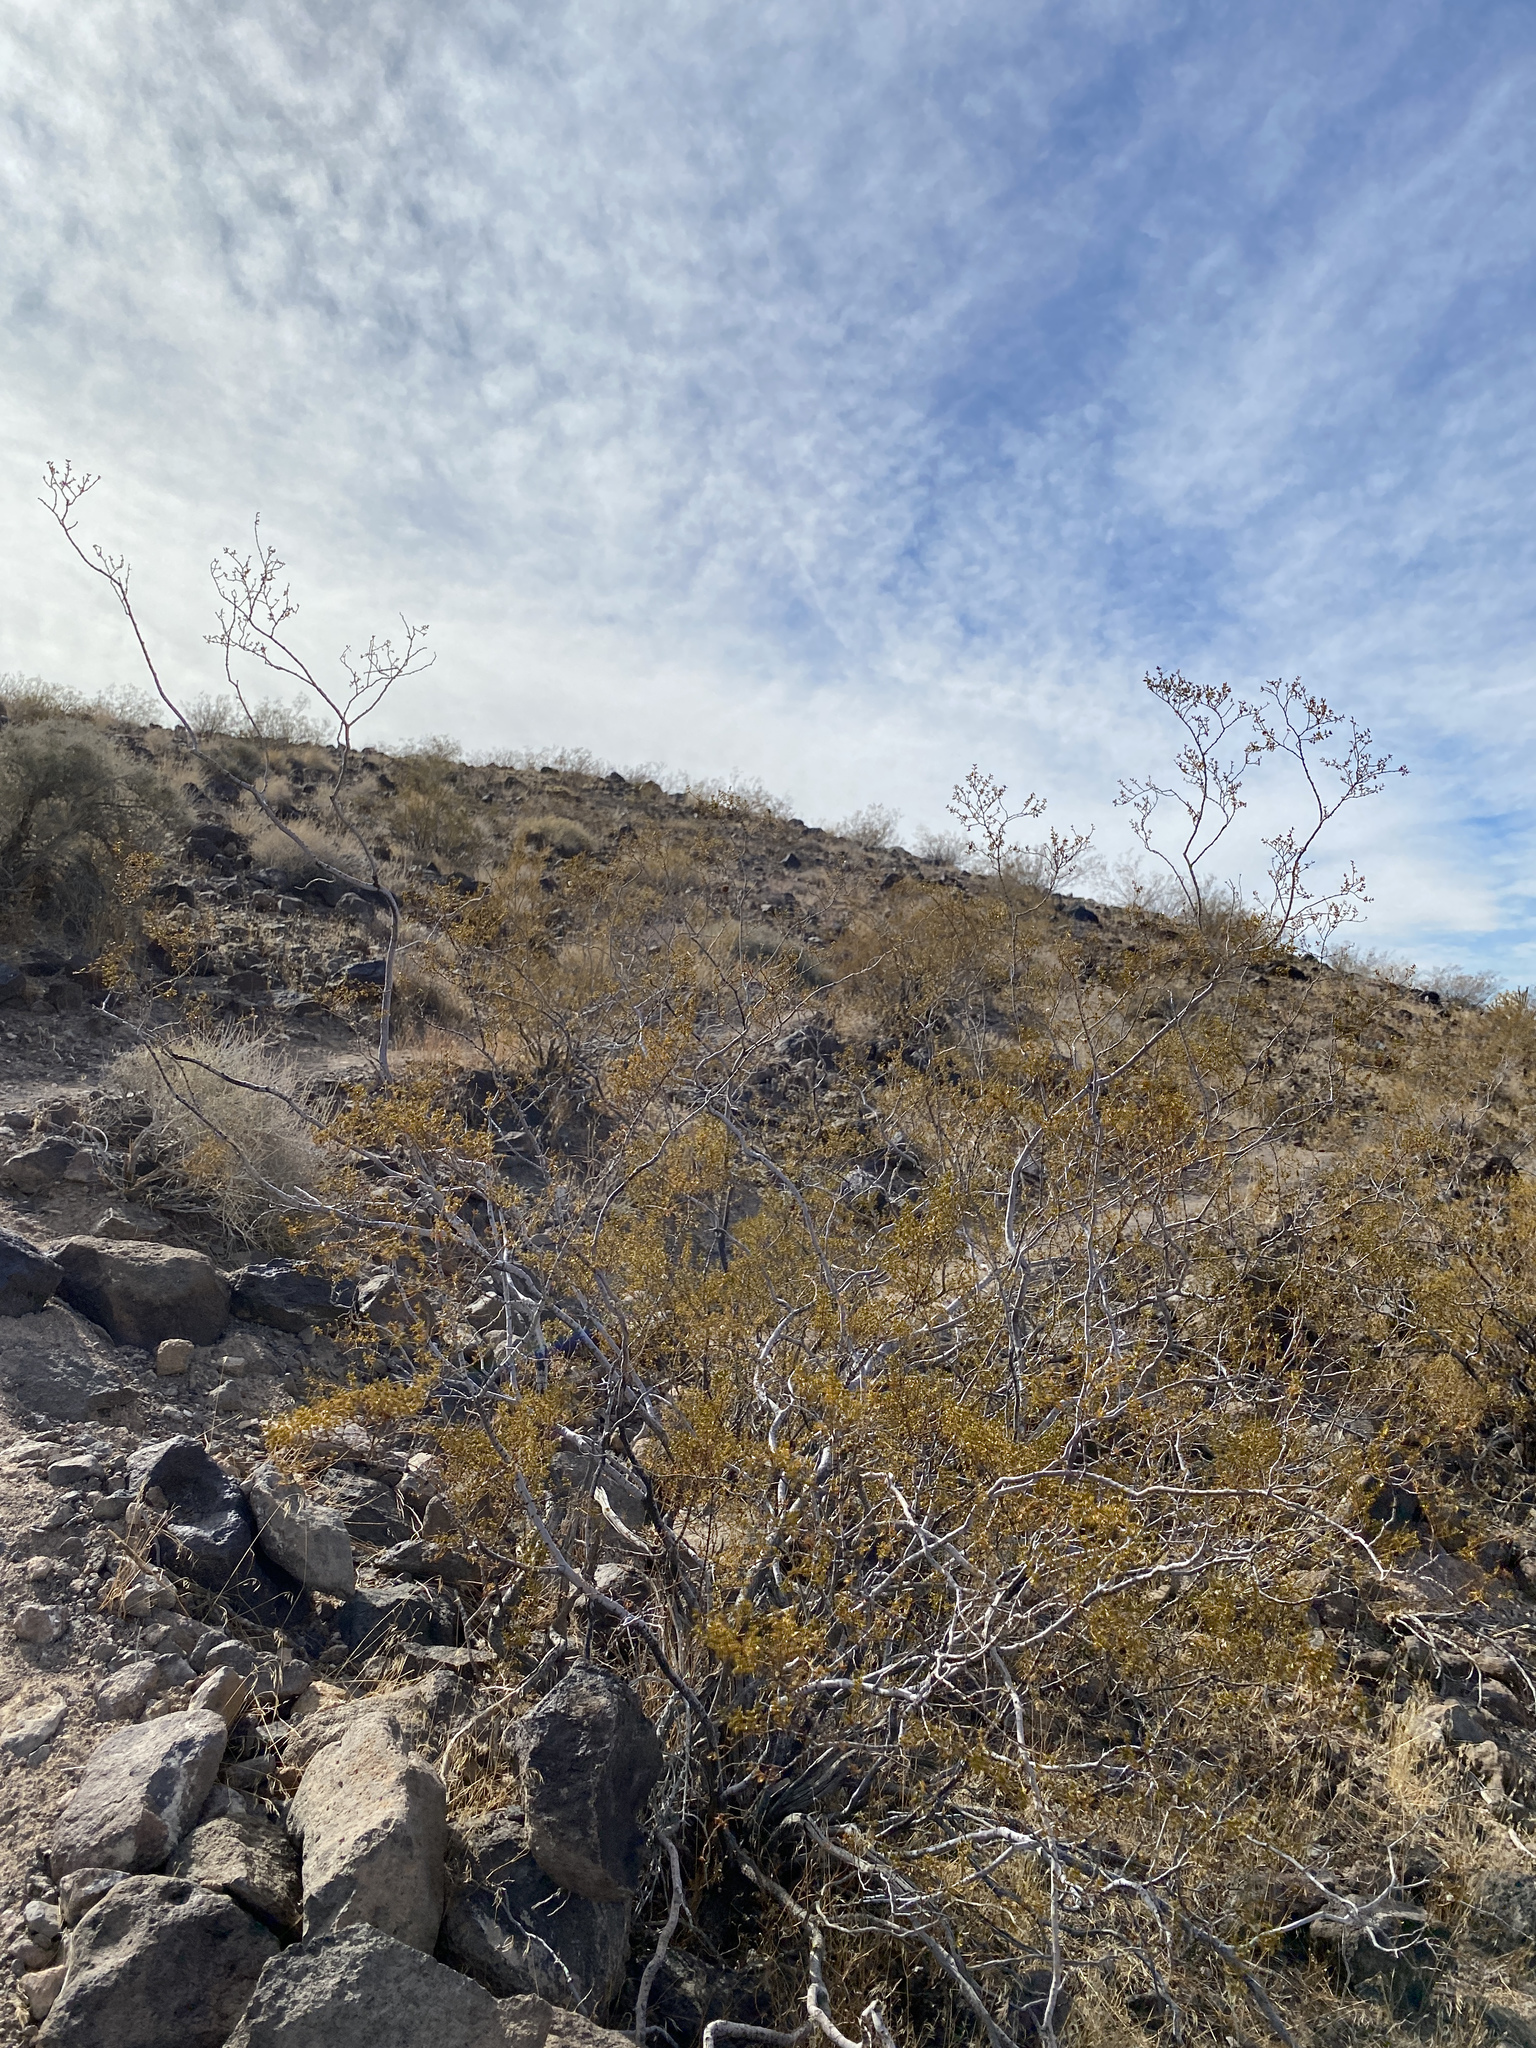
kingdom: Plantae
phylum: Tracheophyta
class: Magnoliopsida
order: Zygophyllales
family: Zygophyllaceae
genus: Larrea
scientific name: Larrea tridentata
